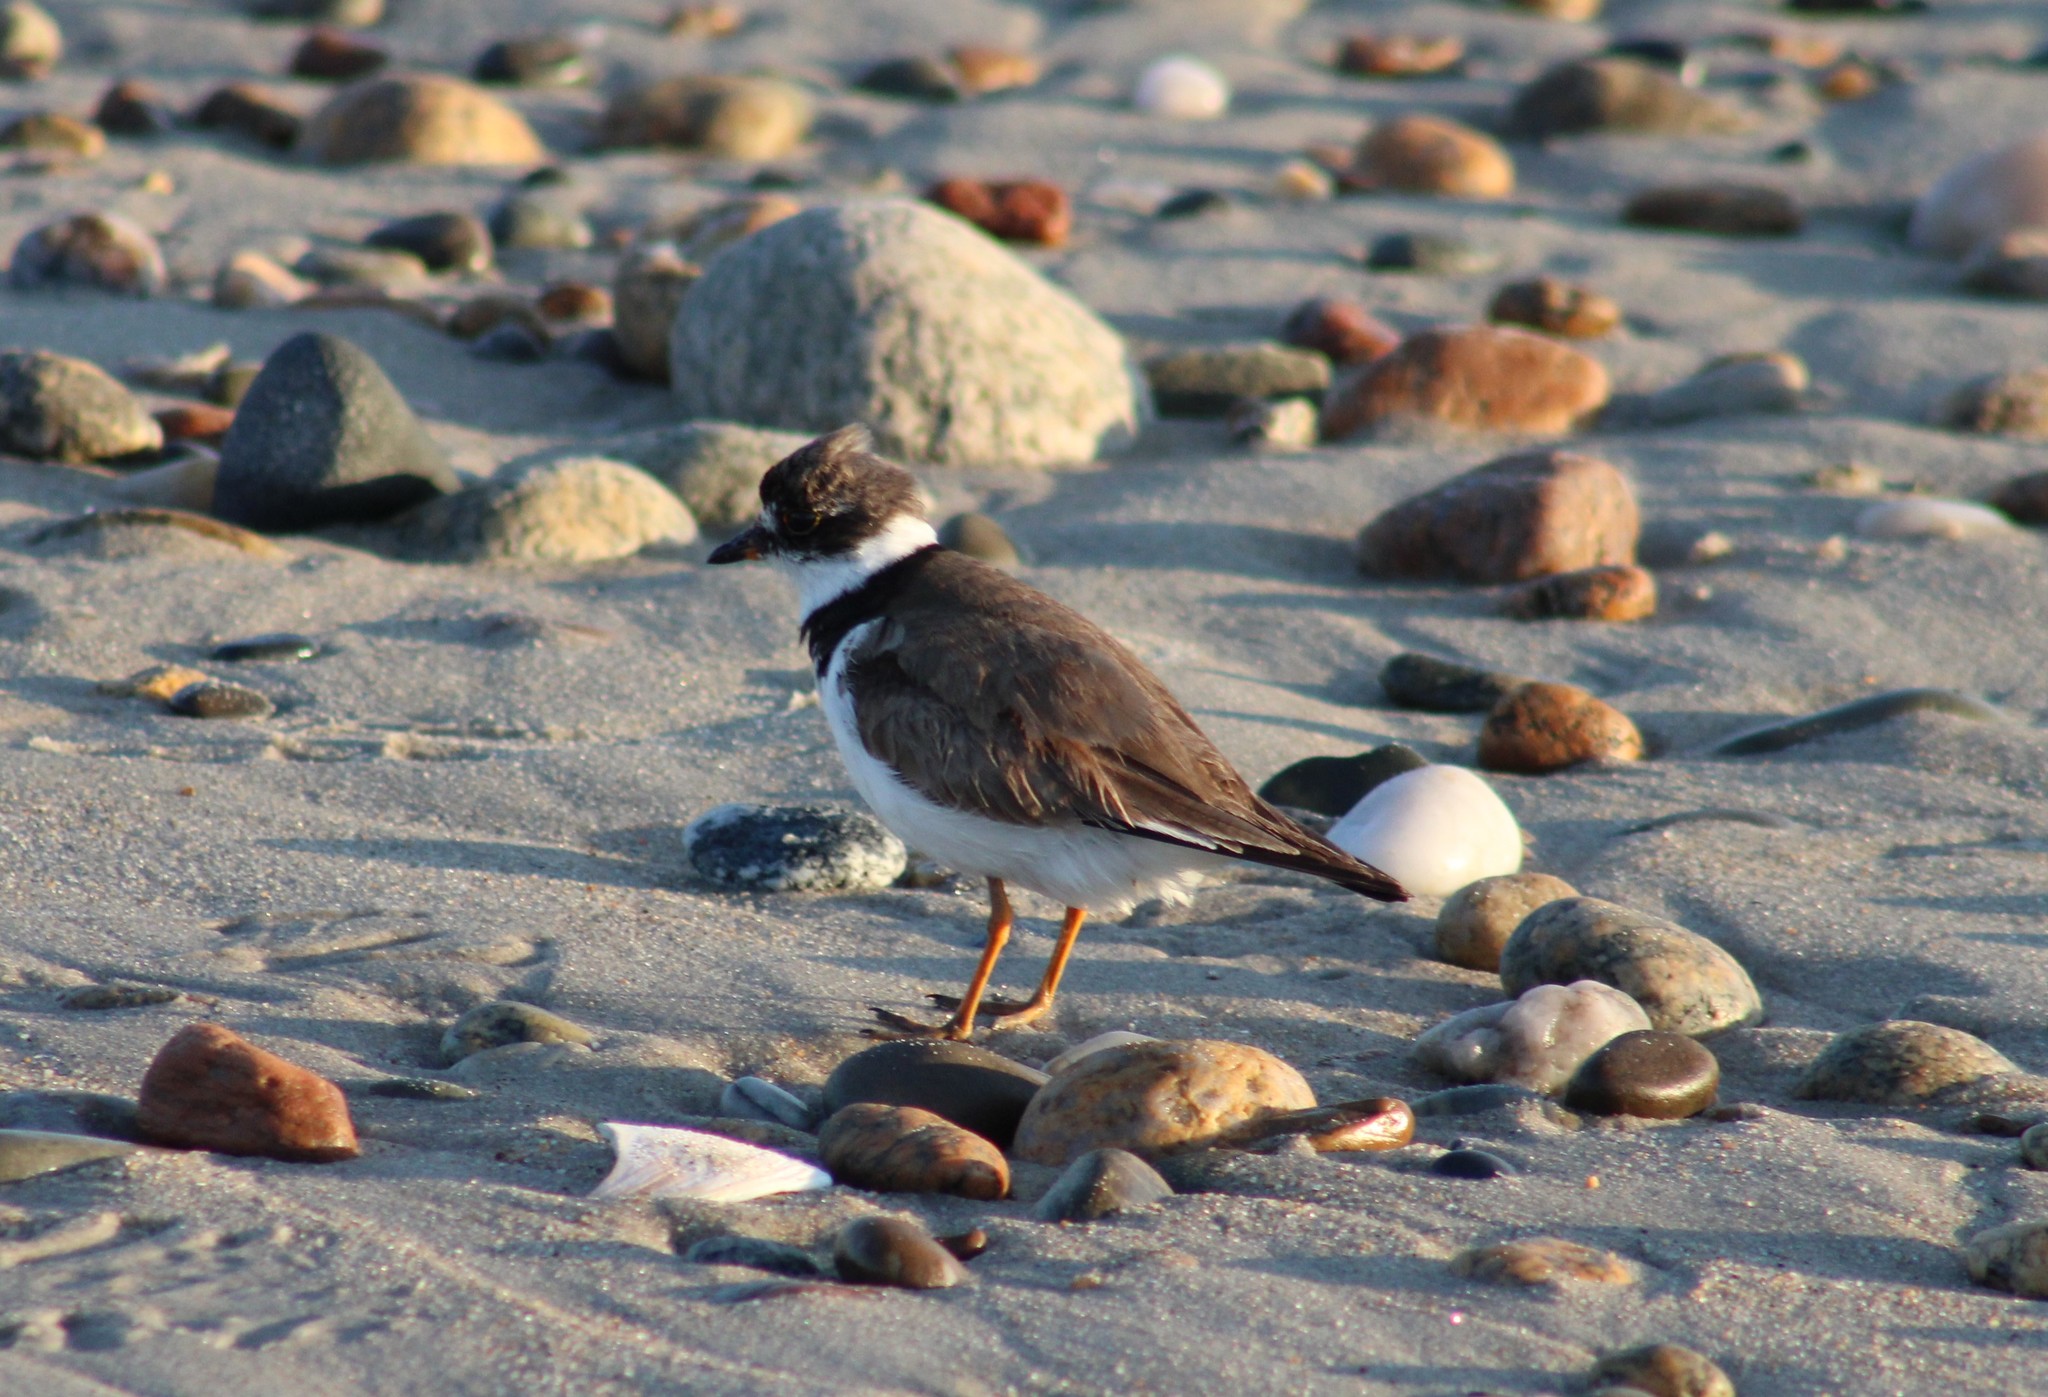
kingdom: Animalia
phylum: Chordata
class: Aves
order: Charadriiformes
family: Charadriidae
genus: Charadrius
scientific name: Charadrius semipalmatus
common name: Semipalmated plover
